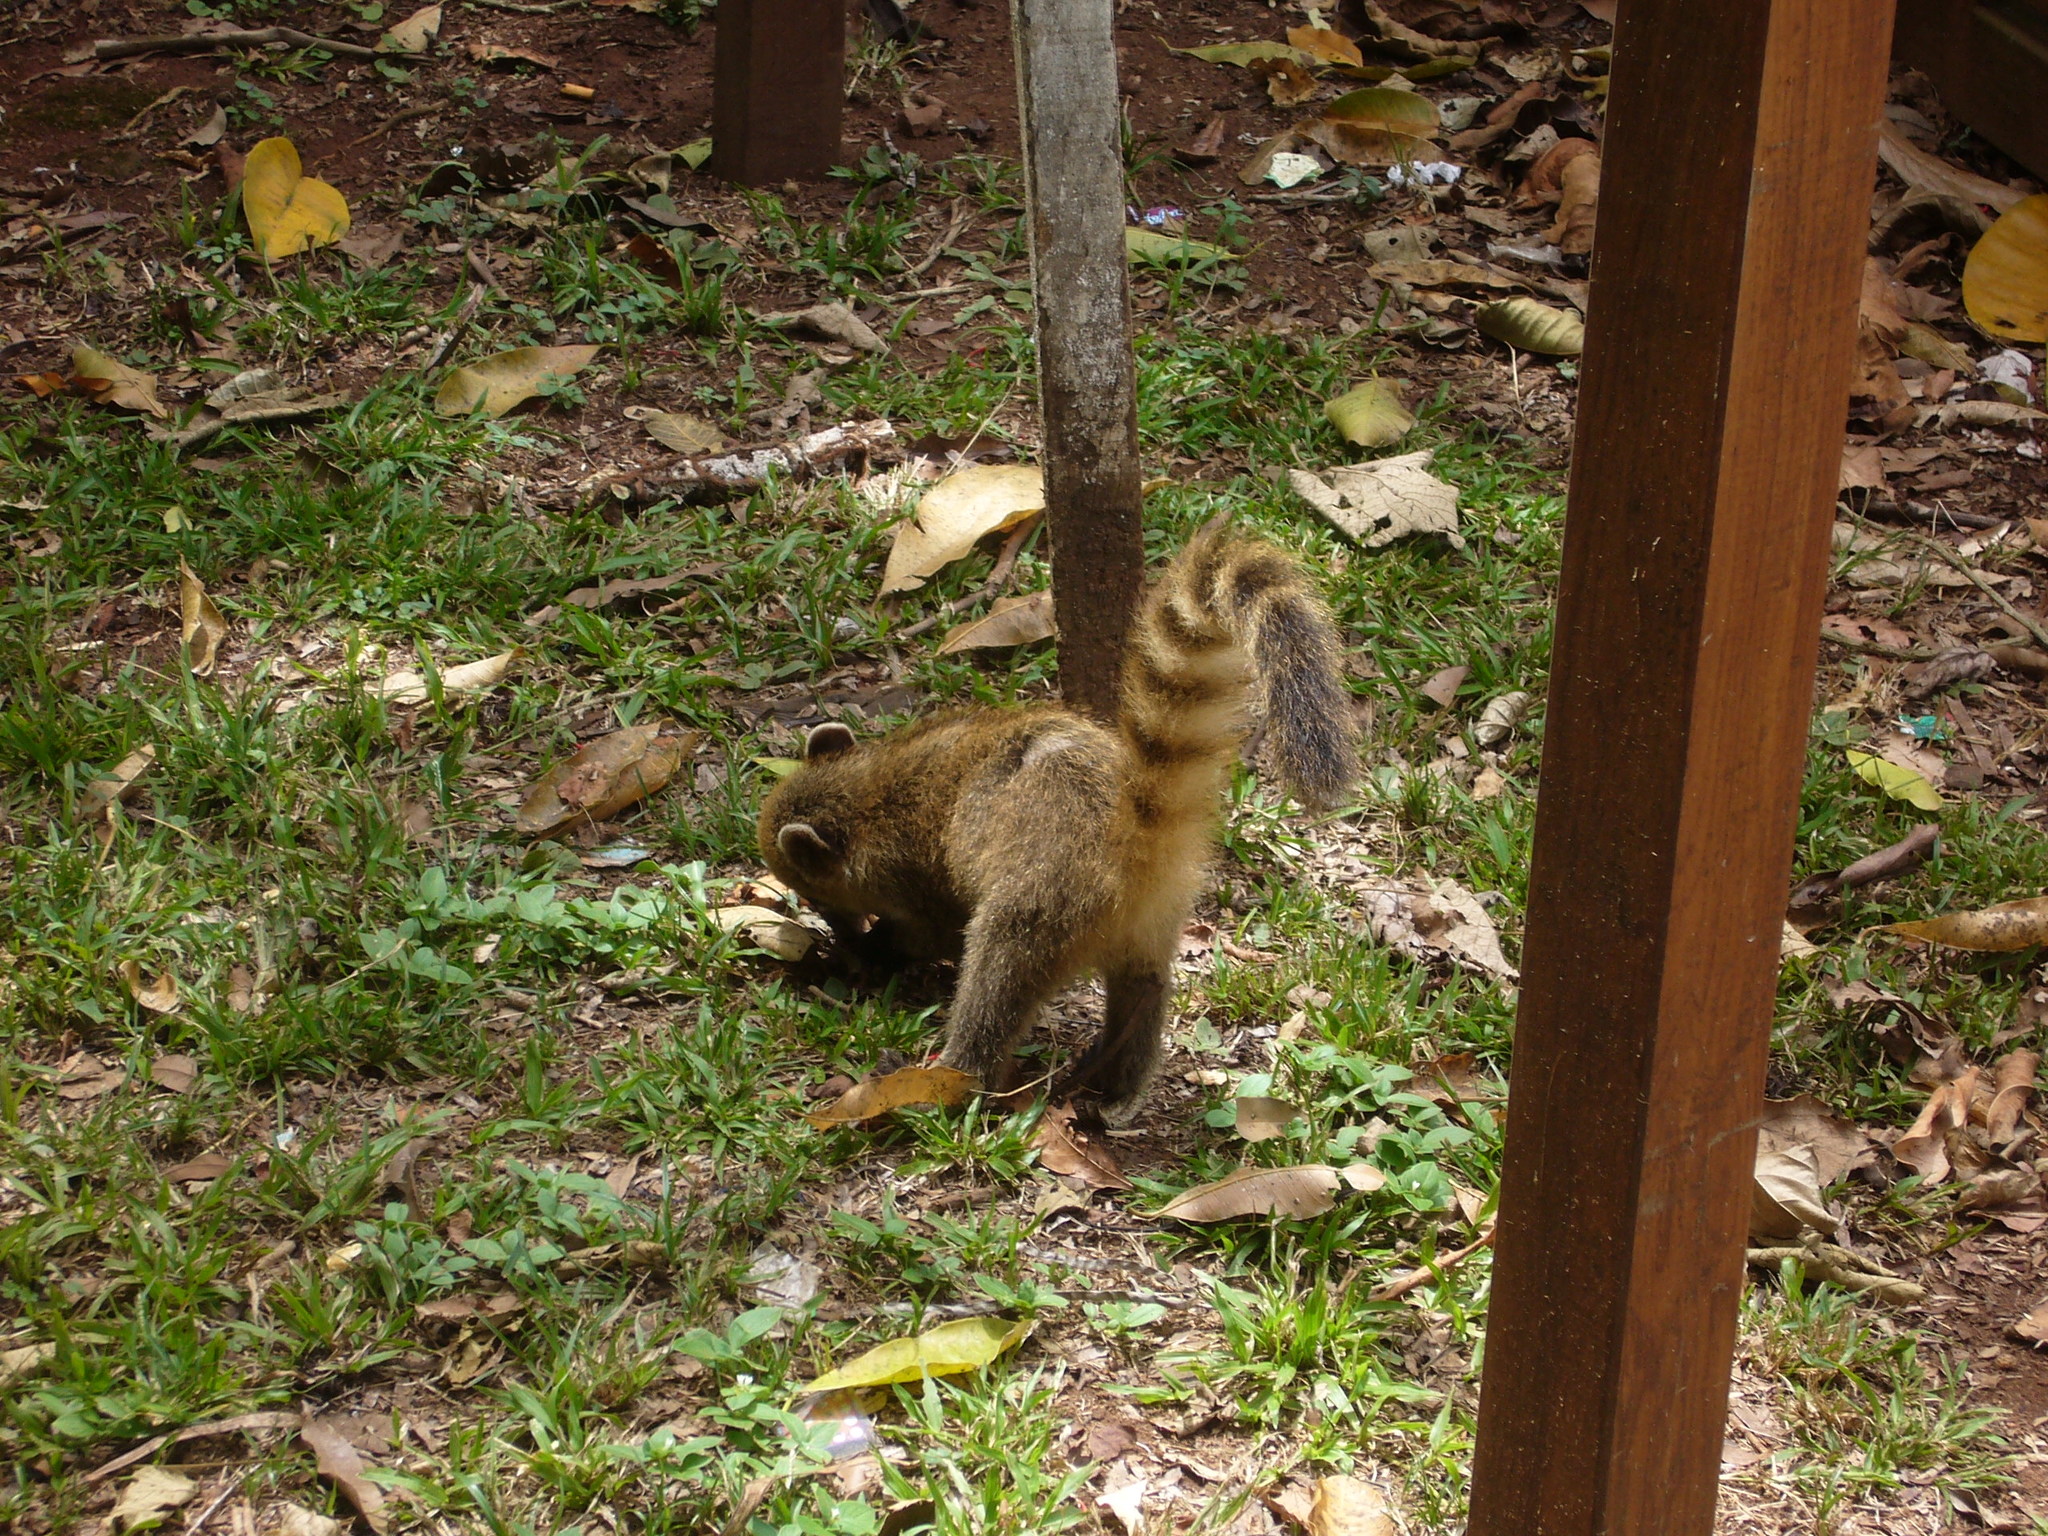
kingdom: Animalia
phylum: Chordata
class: Mammalia
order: Carnivora
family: Procyonidae
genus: Nasua
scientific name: Nasua nasua
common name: South american coati
